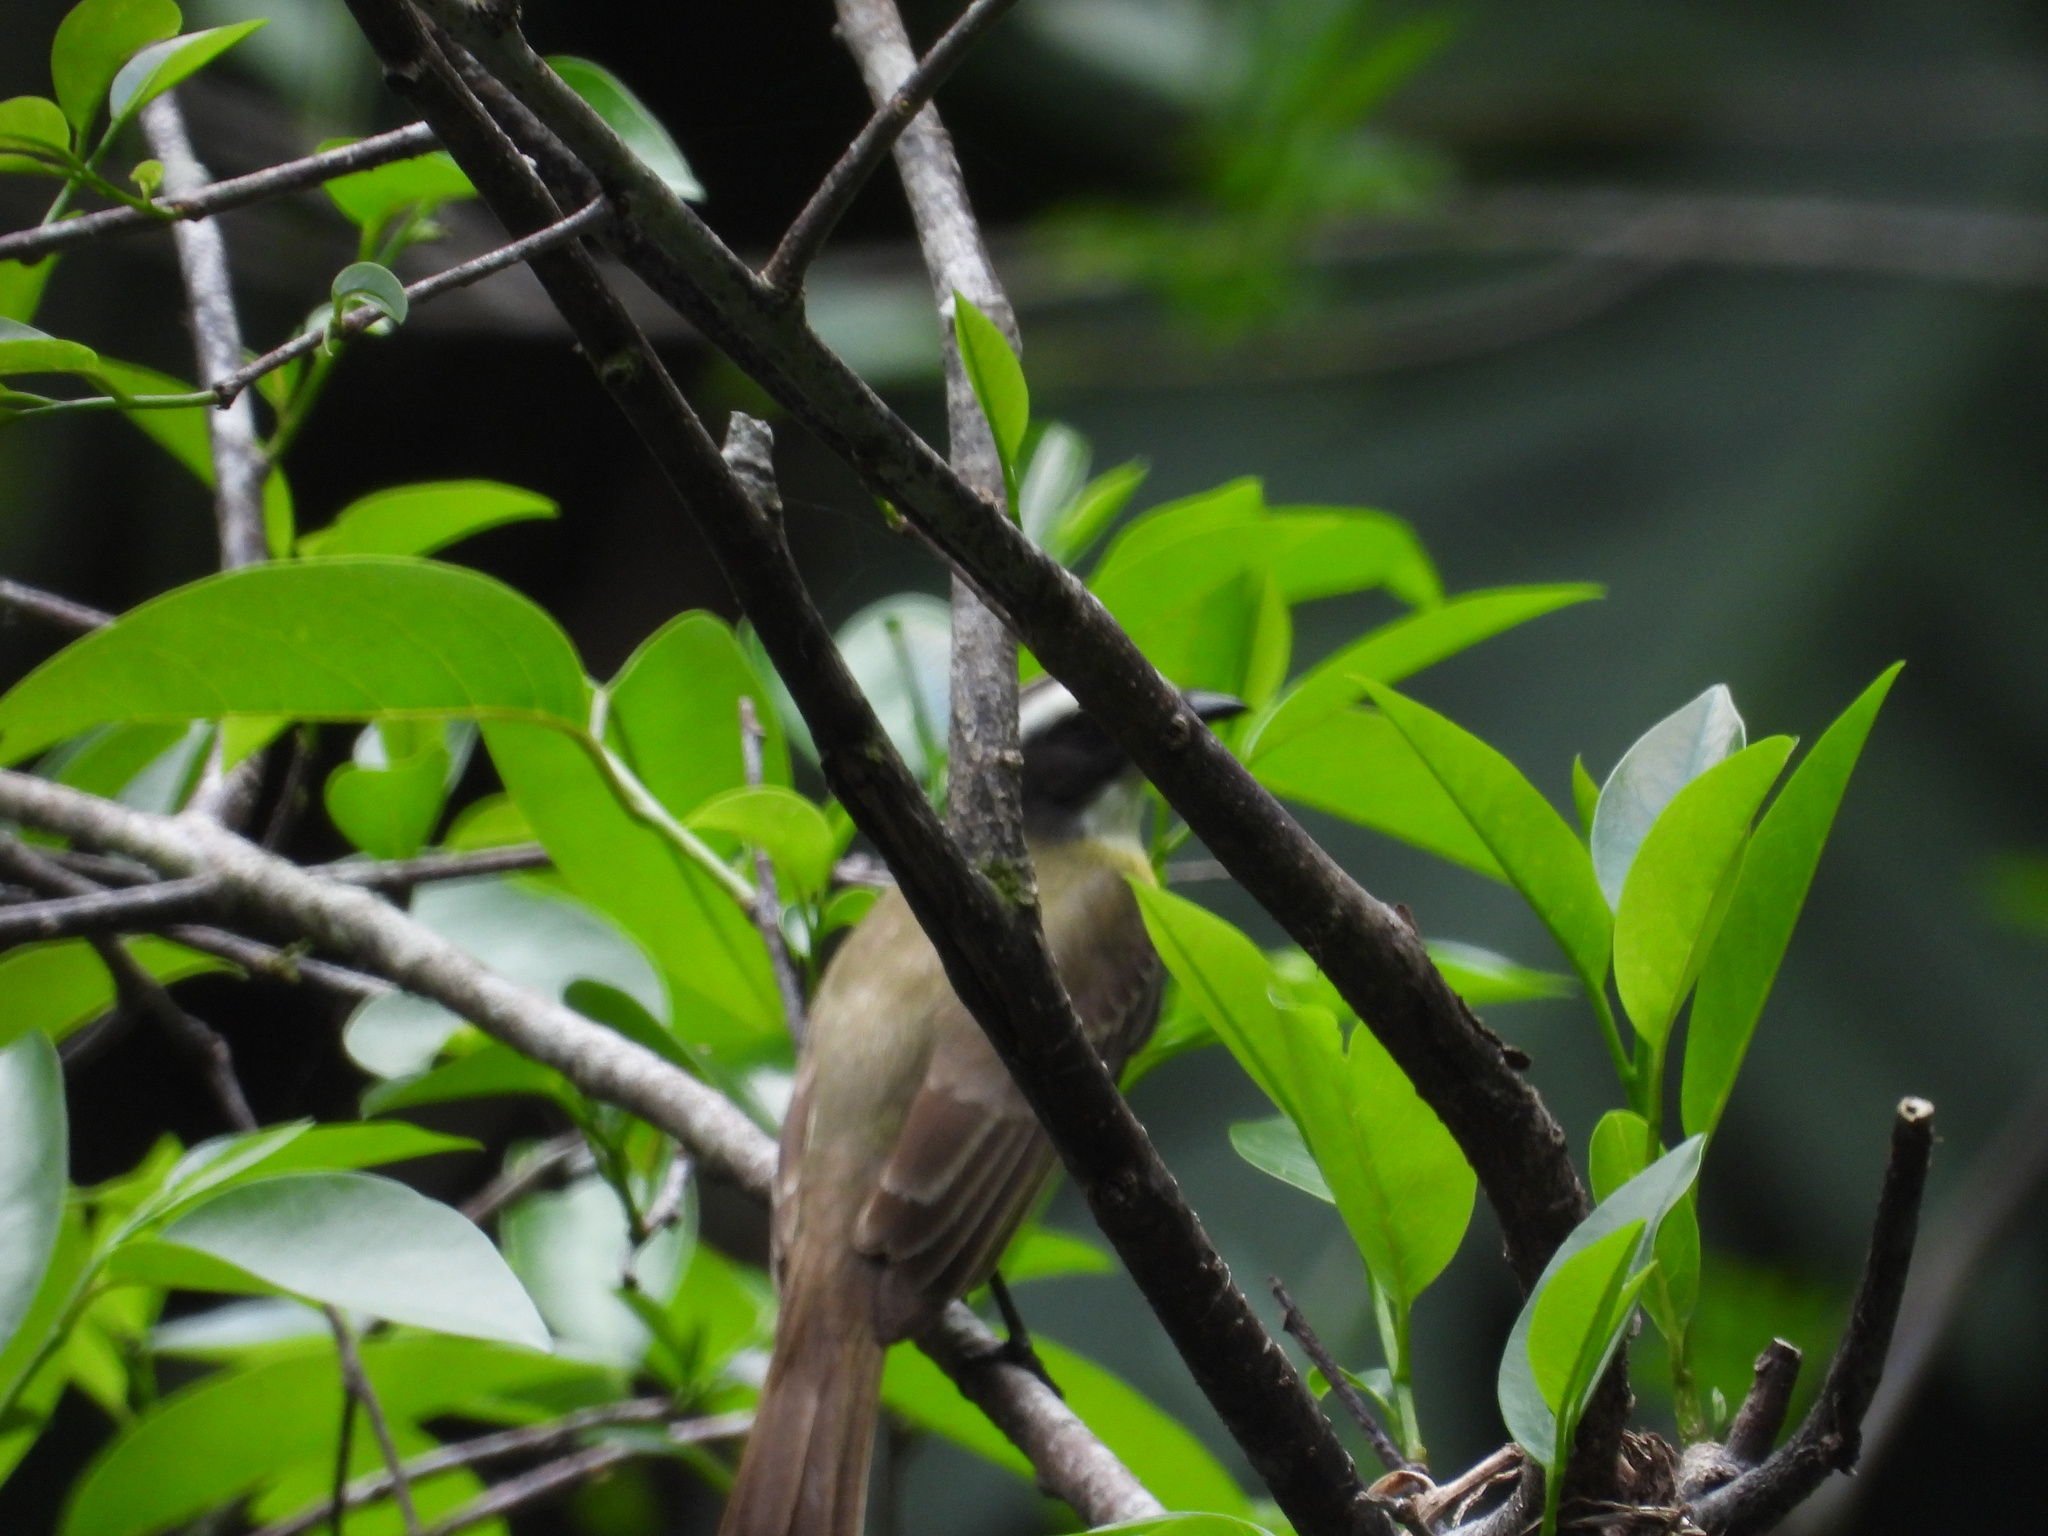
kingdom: Animalia
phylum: Chordata
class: Aves
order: Passeriformes
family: Tyrannidae
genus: Myiozetetes
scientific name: Myiozetetes similis
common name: Social flycatcher
